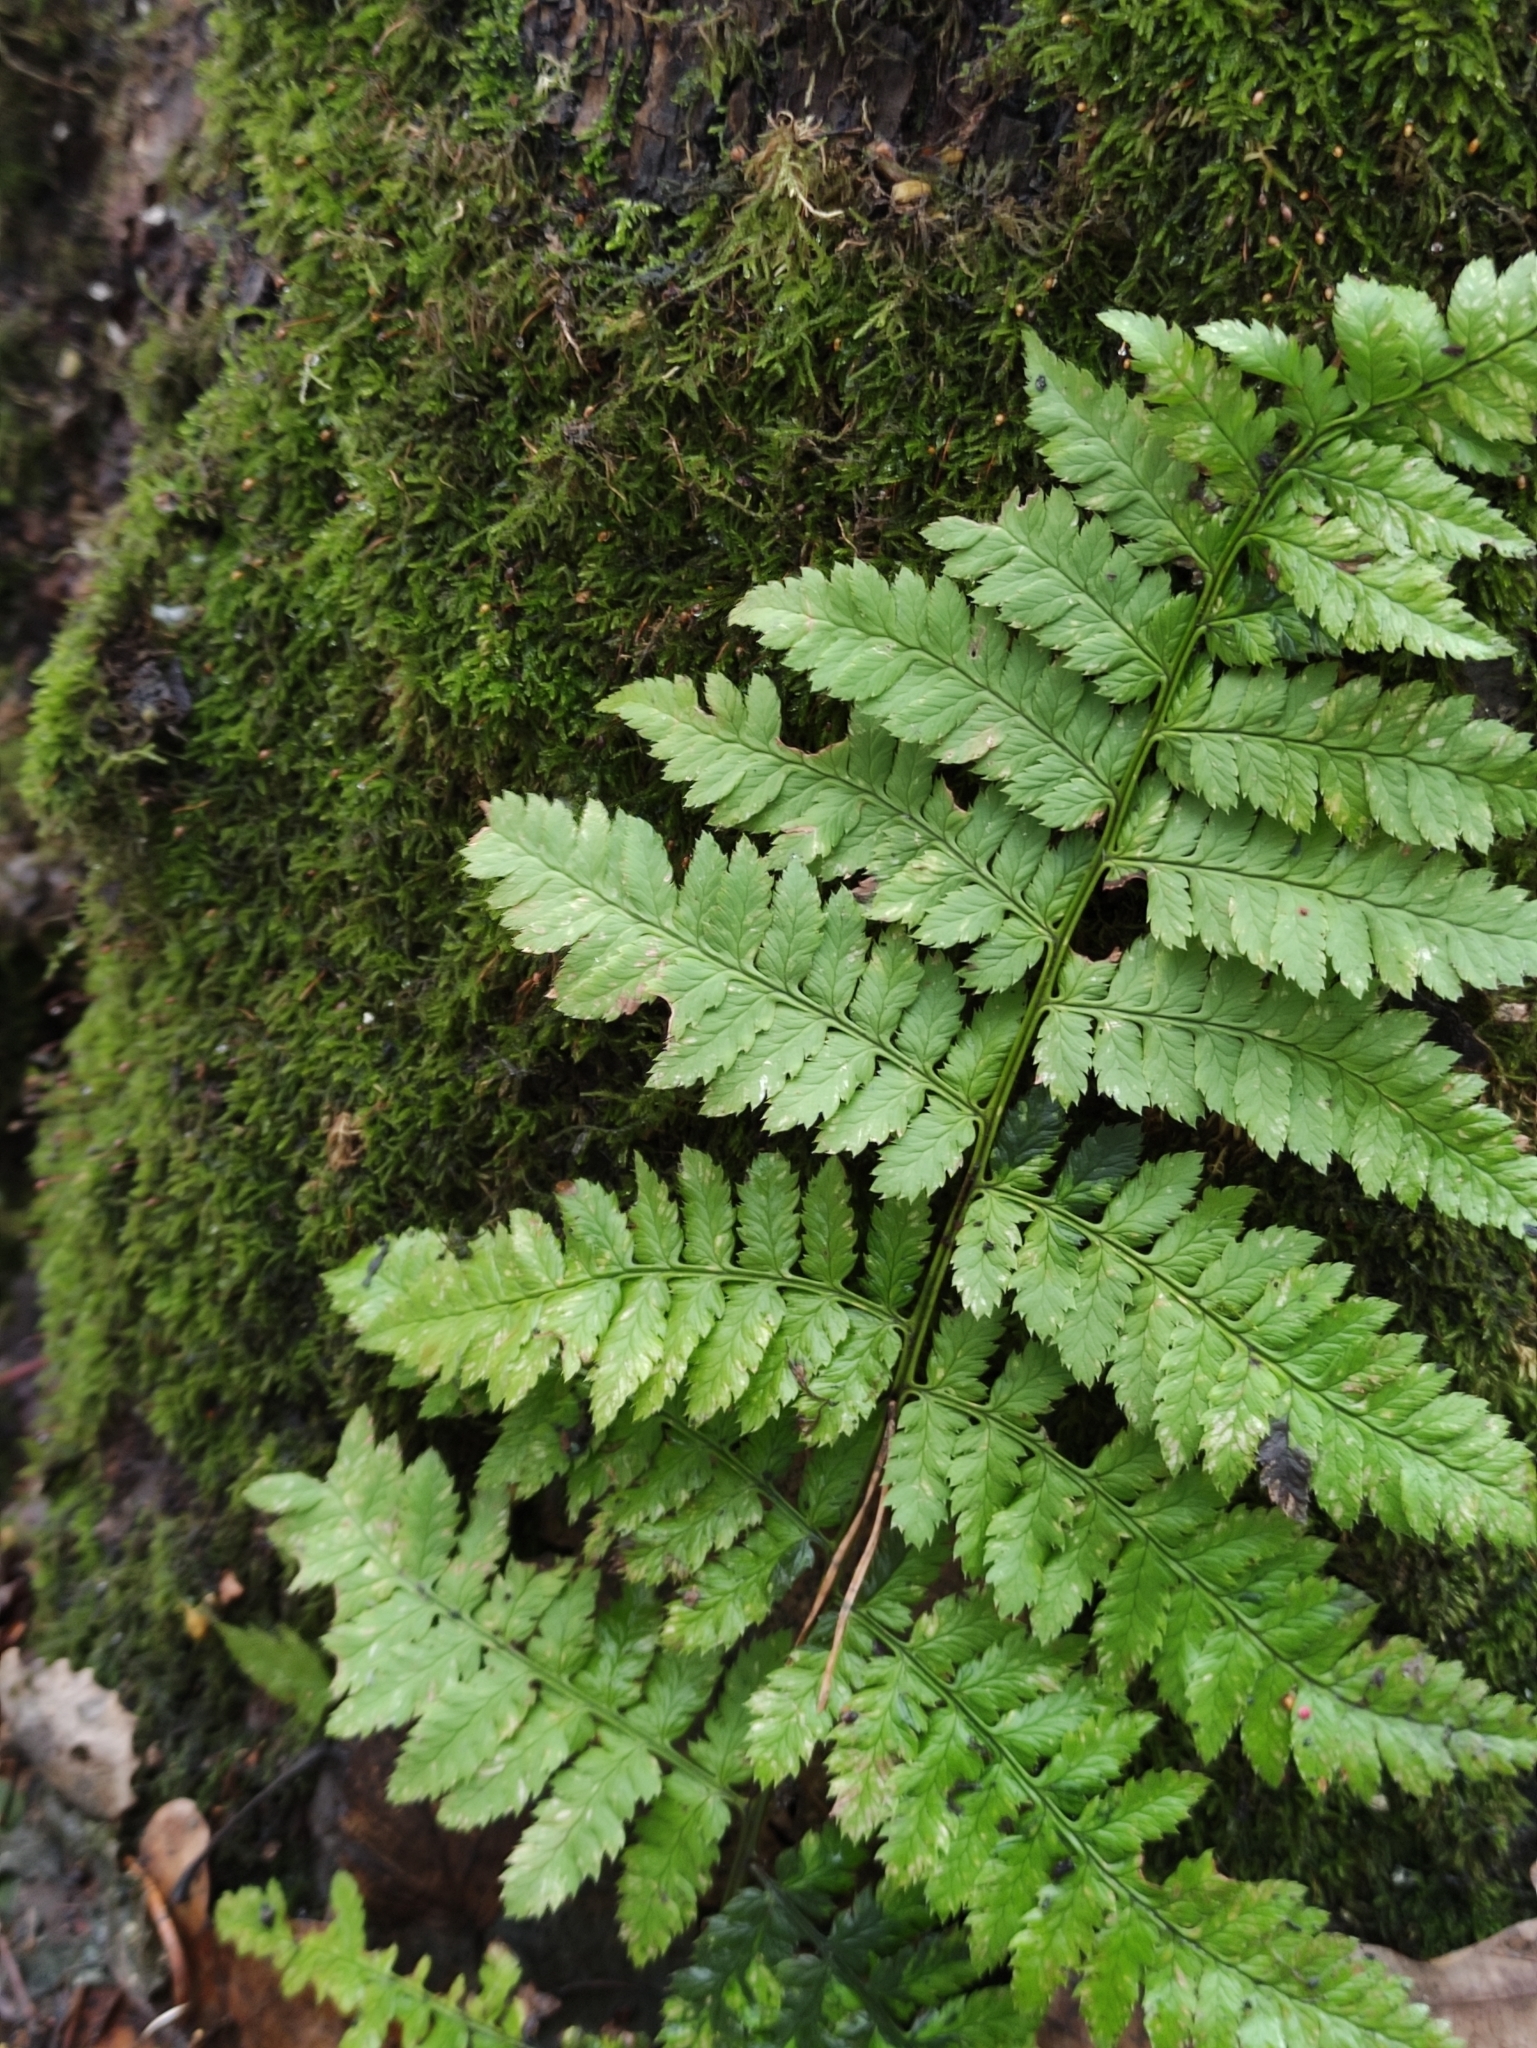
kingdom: Plantae
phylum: Tracheophyta
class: Polypodiopsida
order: Polypodiales
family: Dryopteridaceae
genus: Dryopteris
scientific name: Dryopteris carthusiana
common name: Narrow buckler-fern
